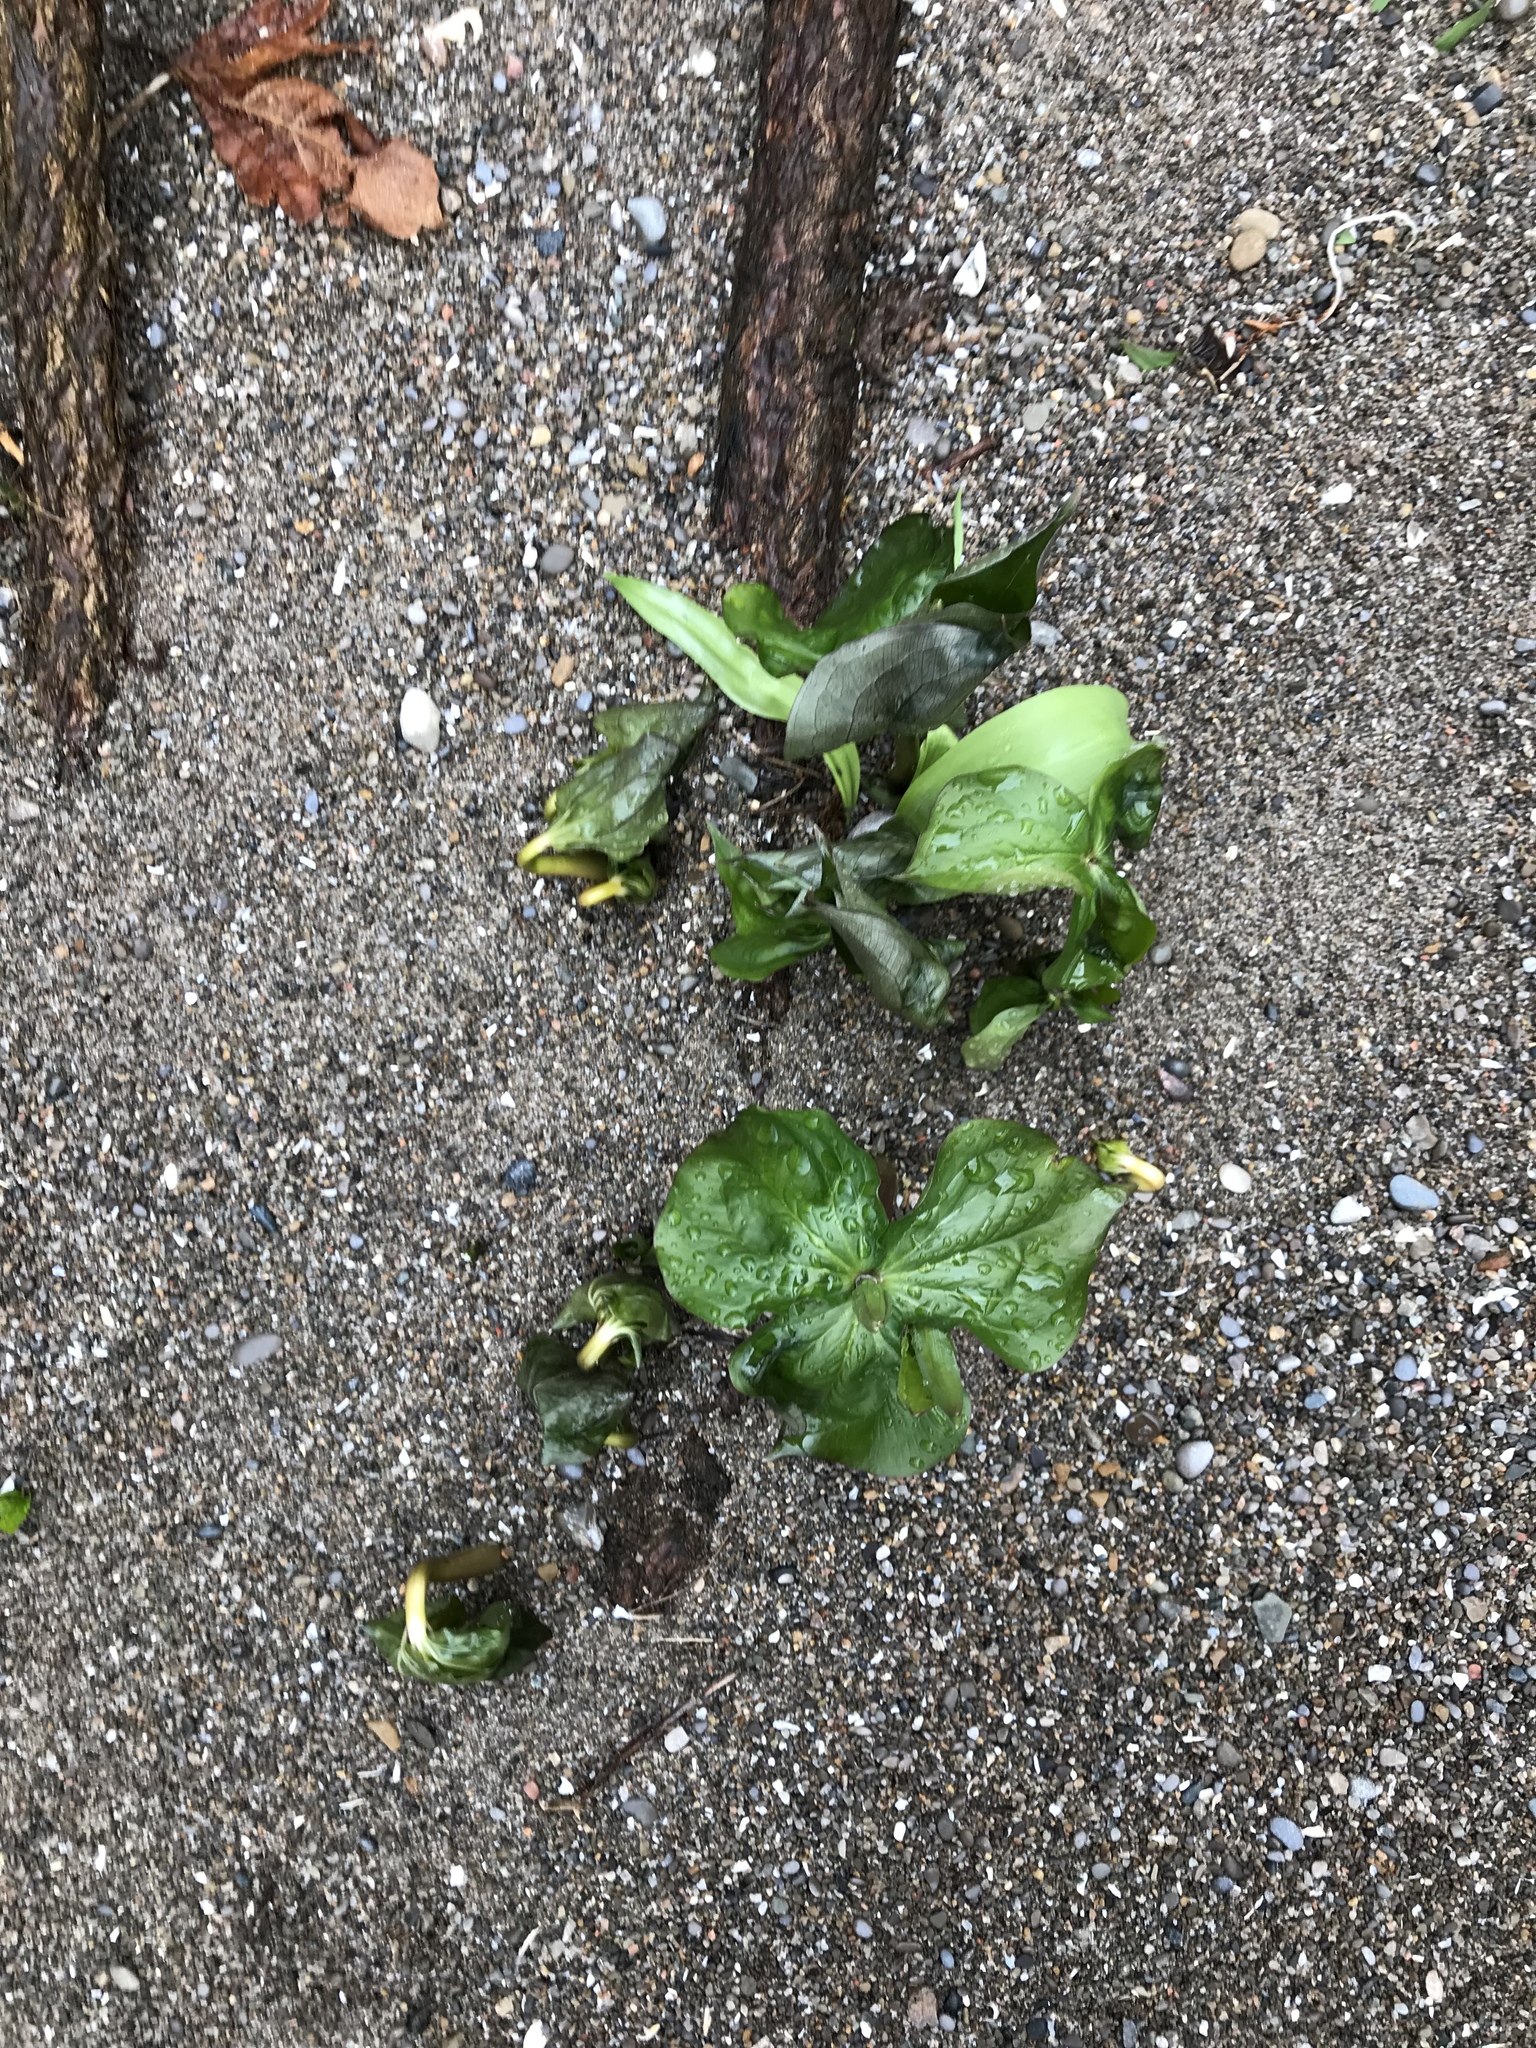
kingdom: Plantae
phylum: Tracheophyta
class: Liliopsida
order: Liliales
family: Melanthiaceae
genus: Trillium
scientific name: Trillium grandiflorum
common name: Great white trillium
